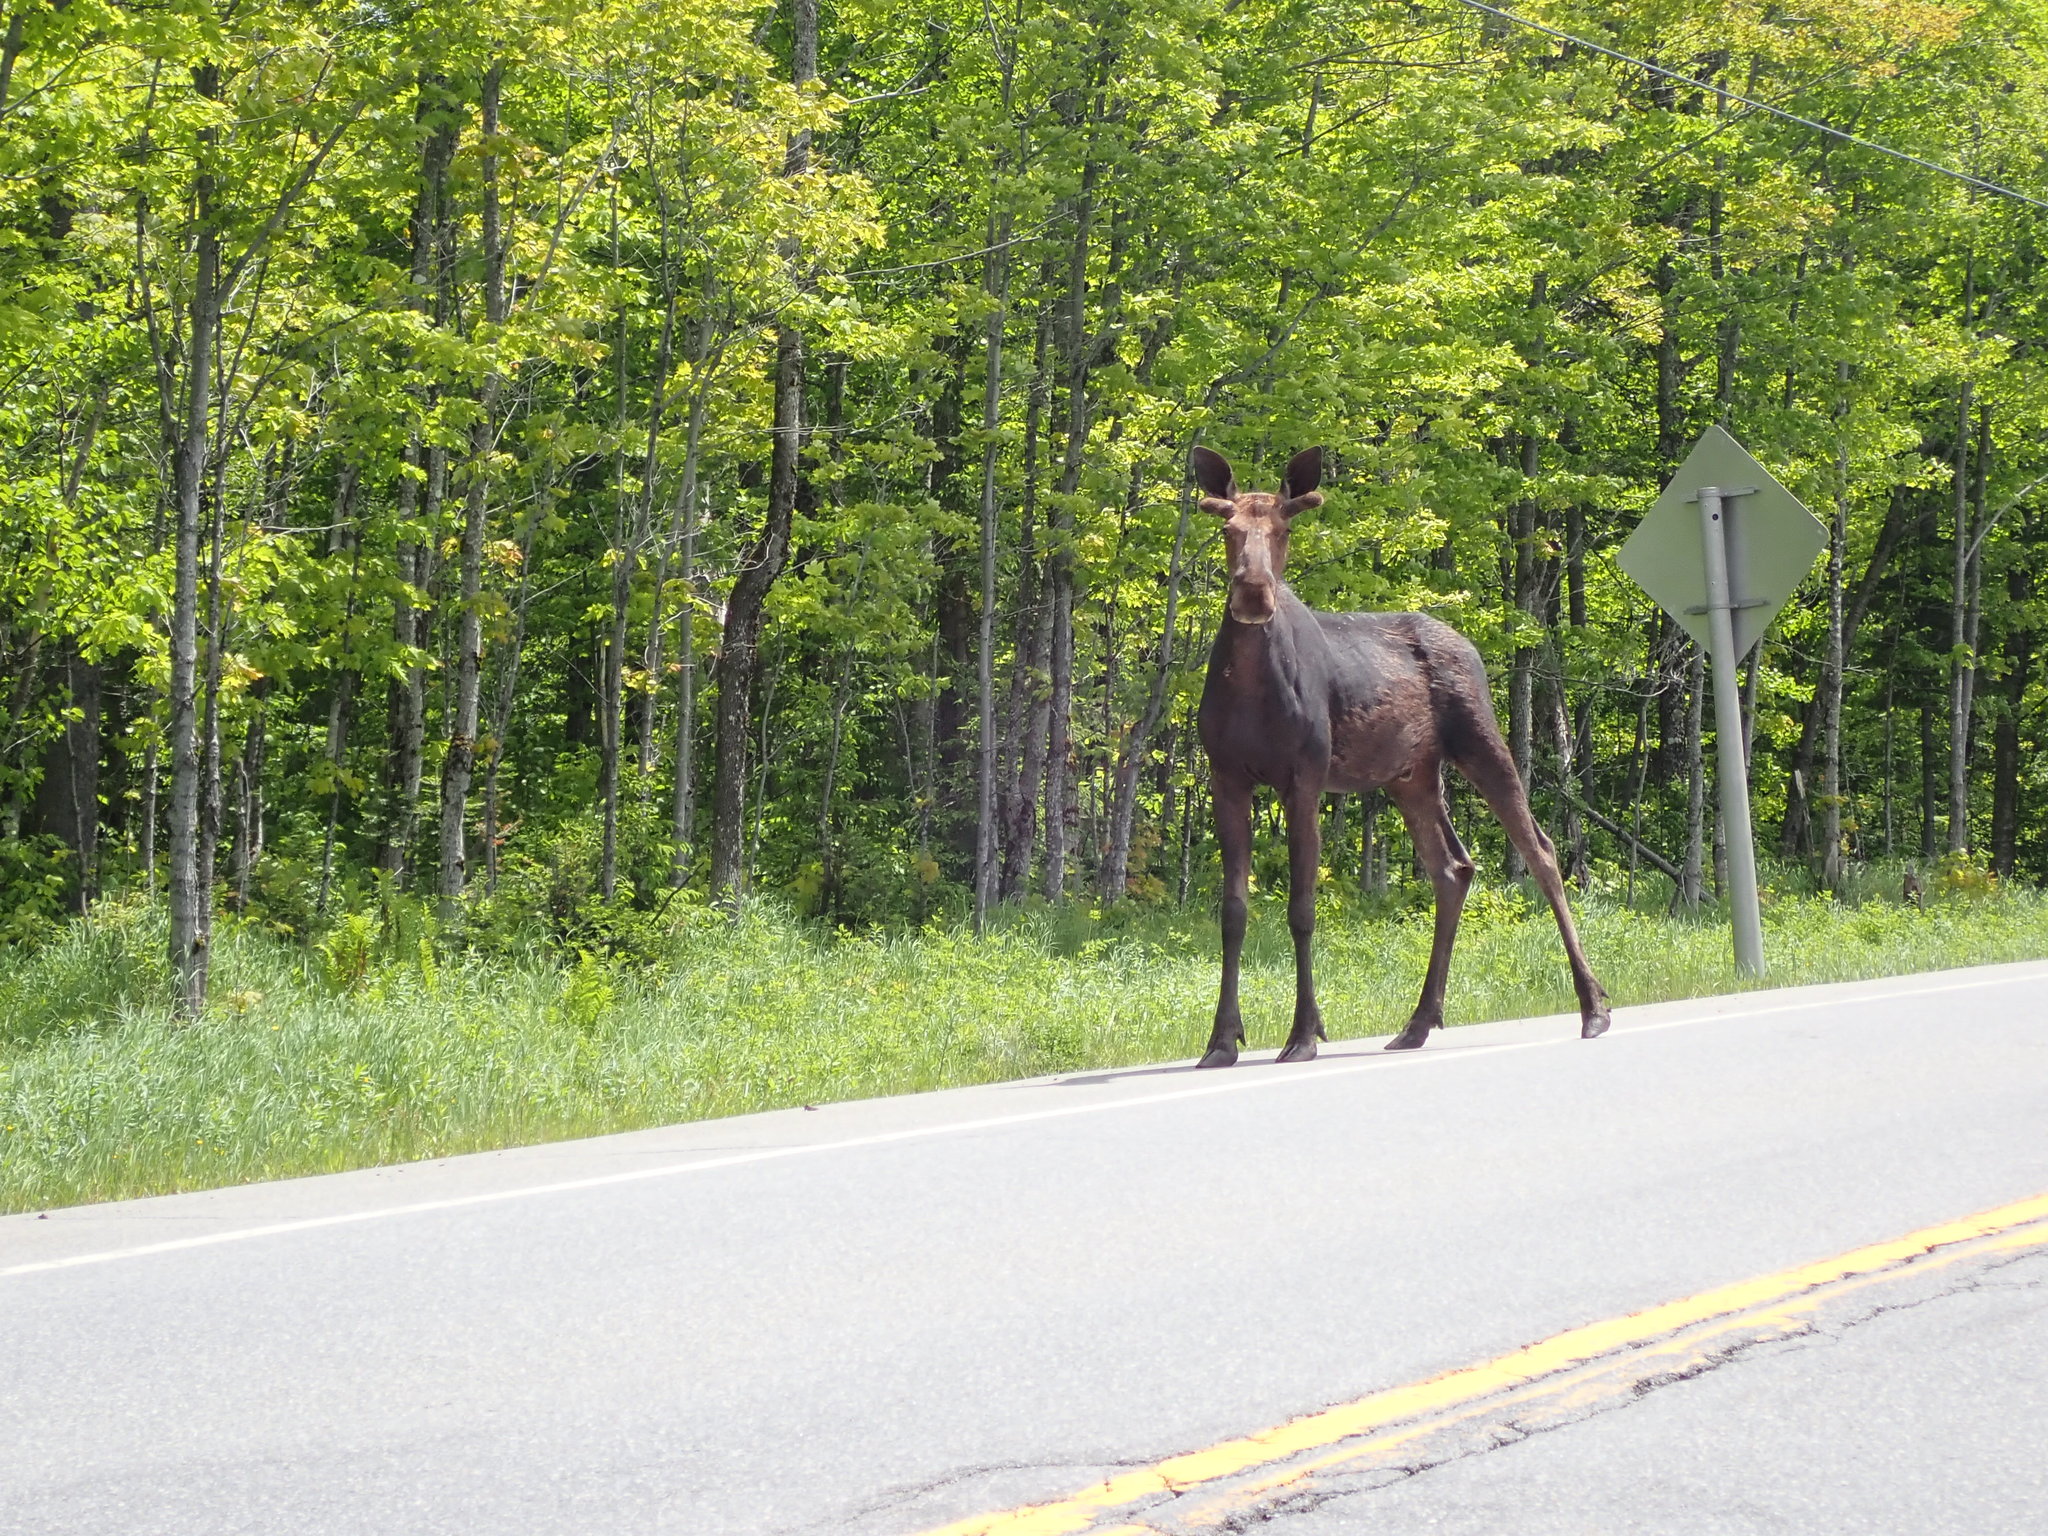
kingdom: Animalia
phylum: Chordata
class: Mammalia
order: Artiodactyla
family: Cervidae
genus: Alces
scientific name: Alces alces
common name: Moose
